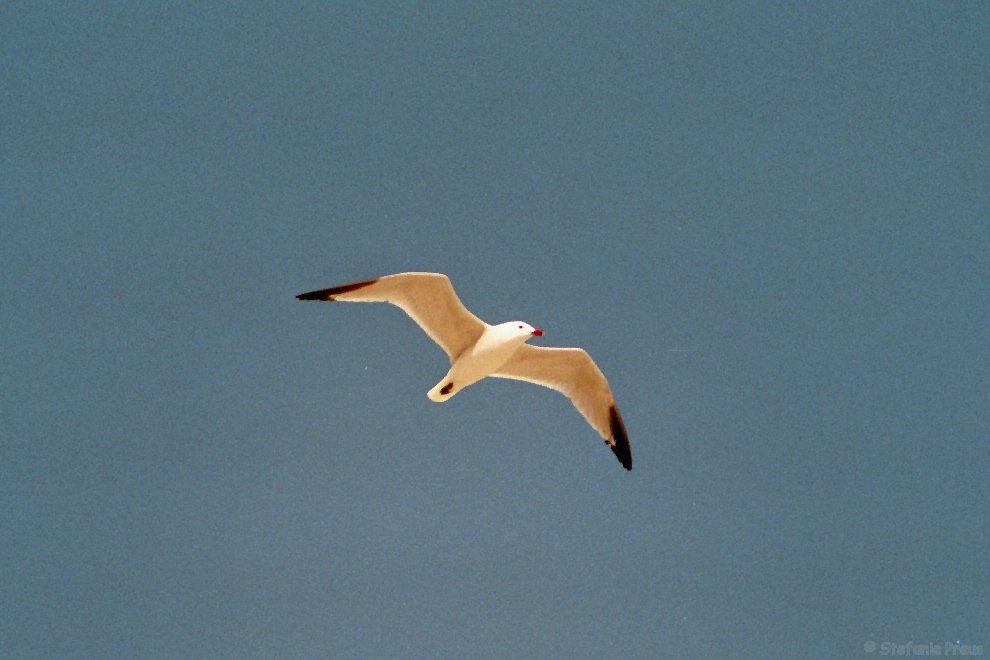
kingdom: Animalia
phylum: Chordata
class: Aves
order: Charadriiformes
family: Laridae
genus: Ichthyaetus
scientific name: Ichthyaetus audouinii
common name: Audouin's gull
